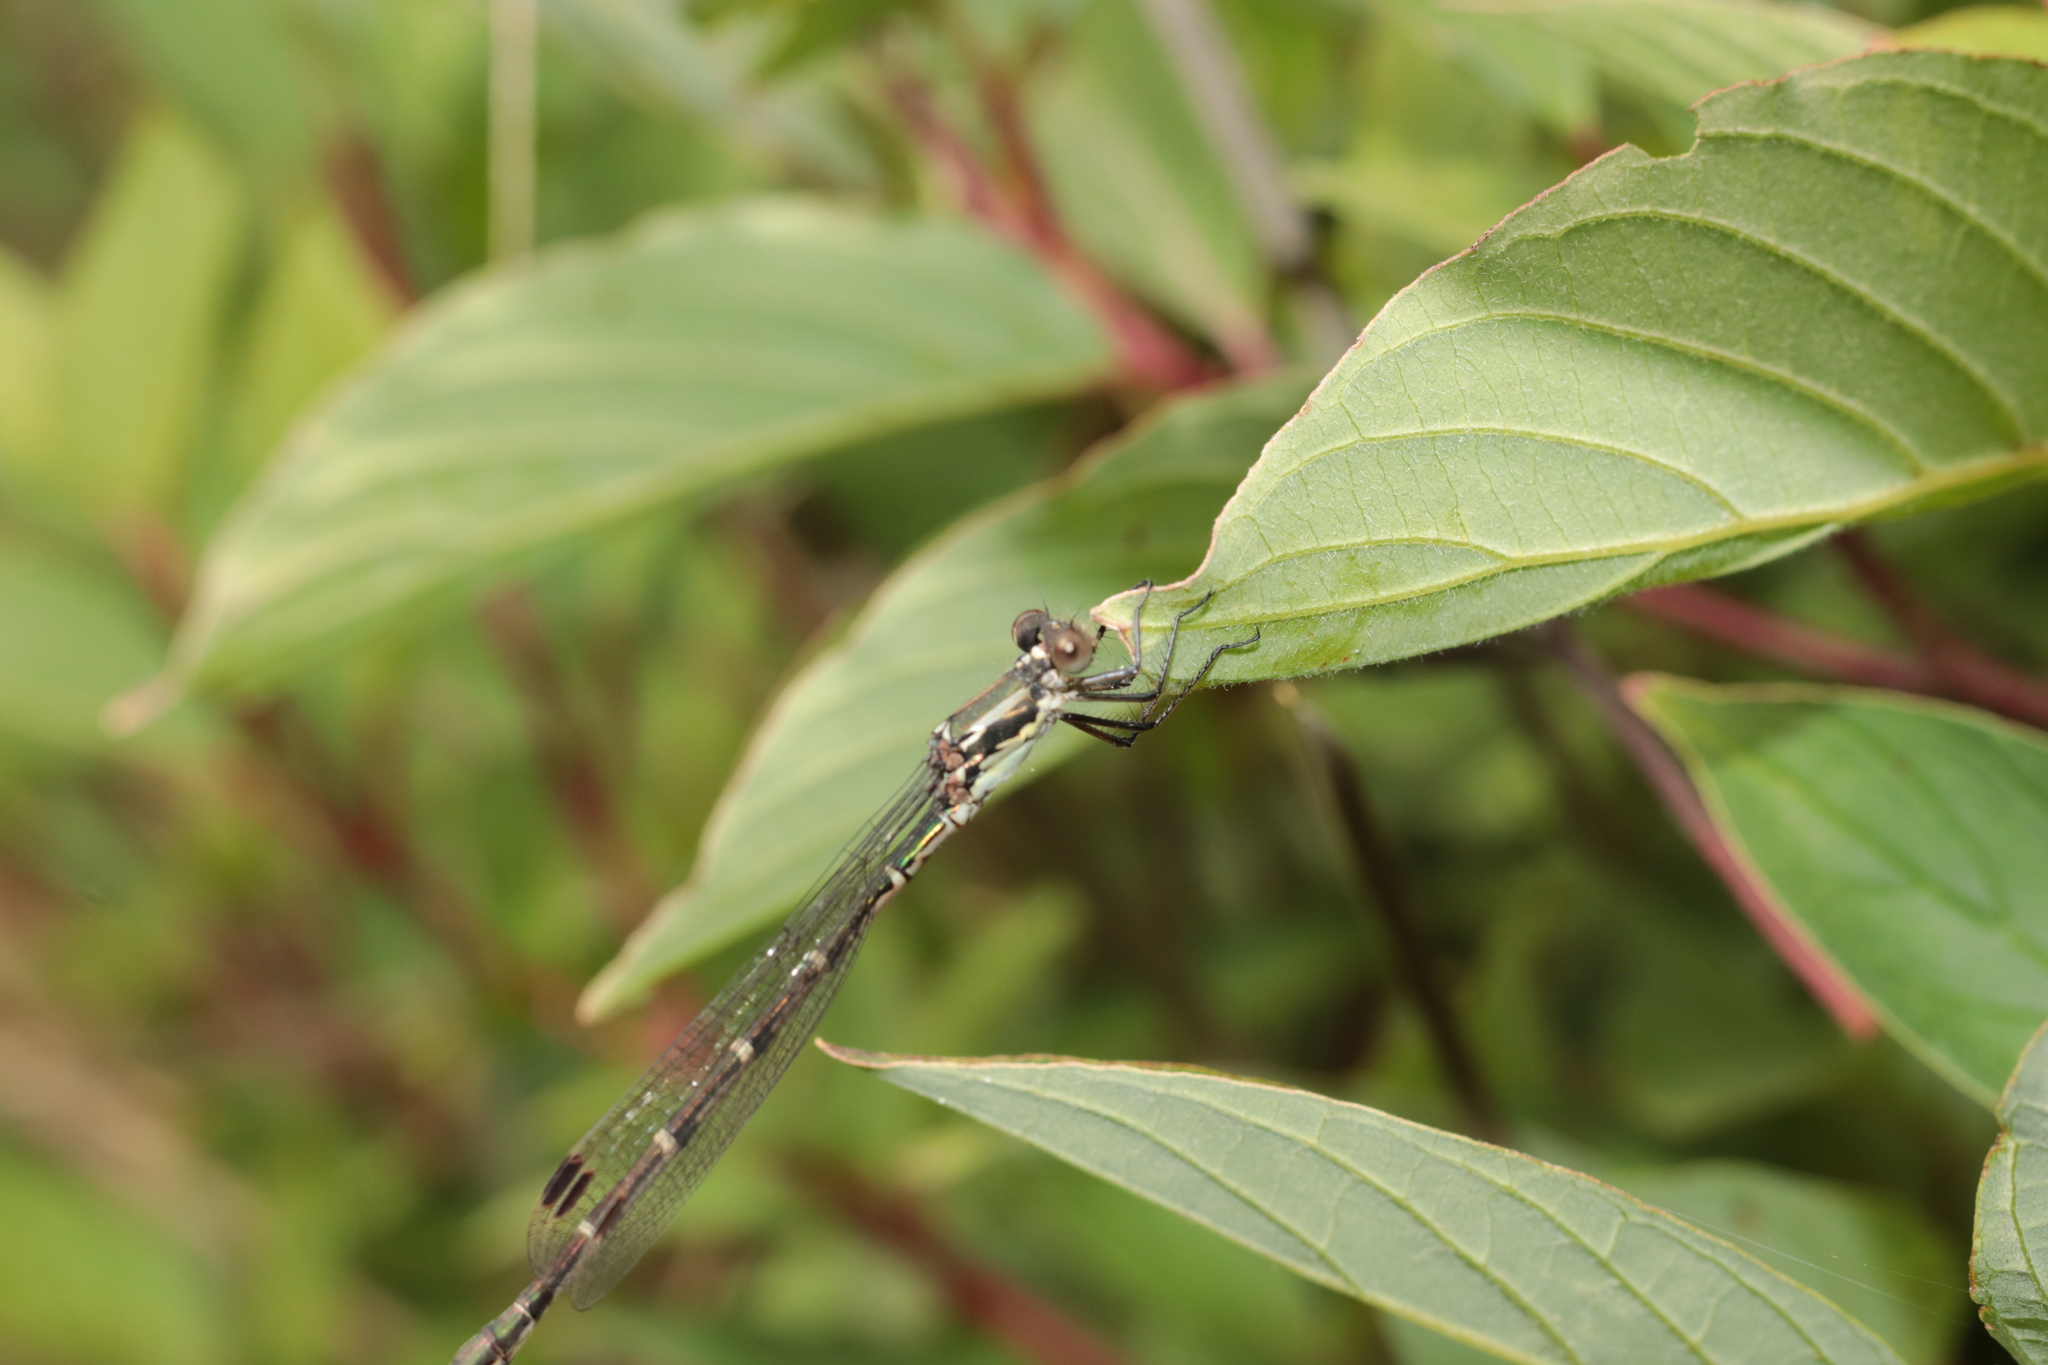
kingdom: Animalia
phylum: Arthropoda
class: Insecta
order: Odonata
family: Lestidae
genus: Austrolestes
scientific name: Austrolestes colensonis
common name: Blue damselfly
